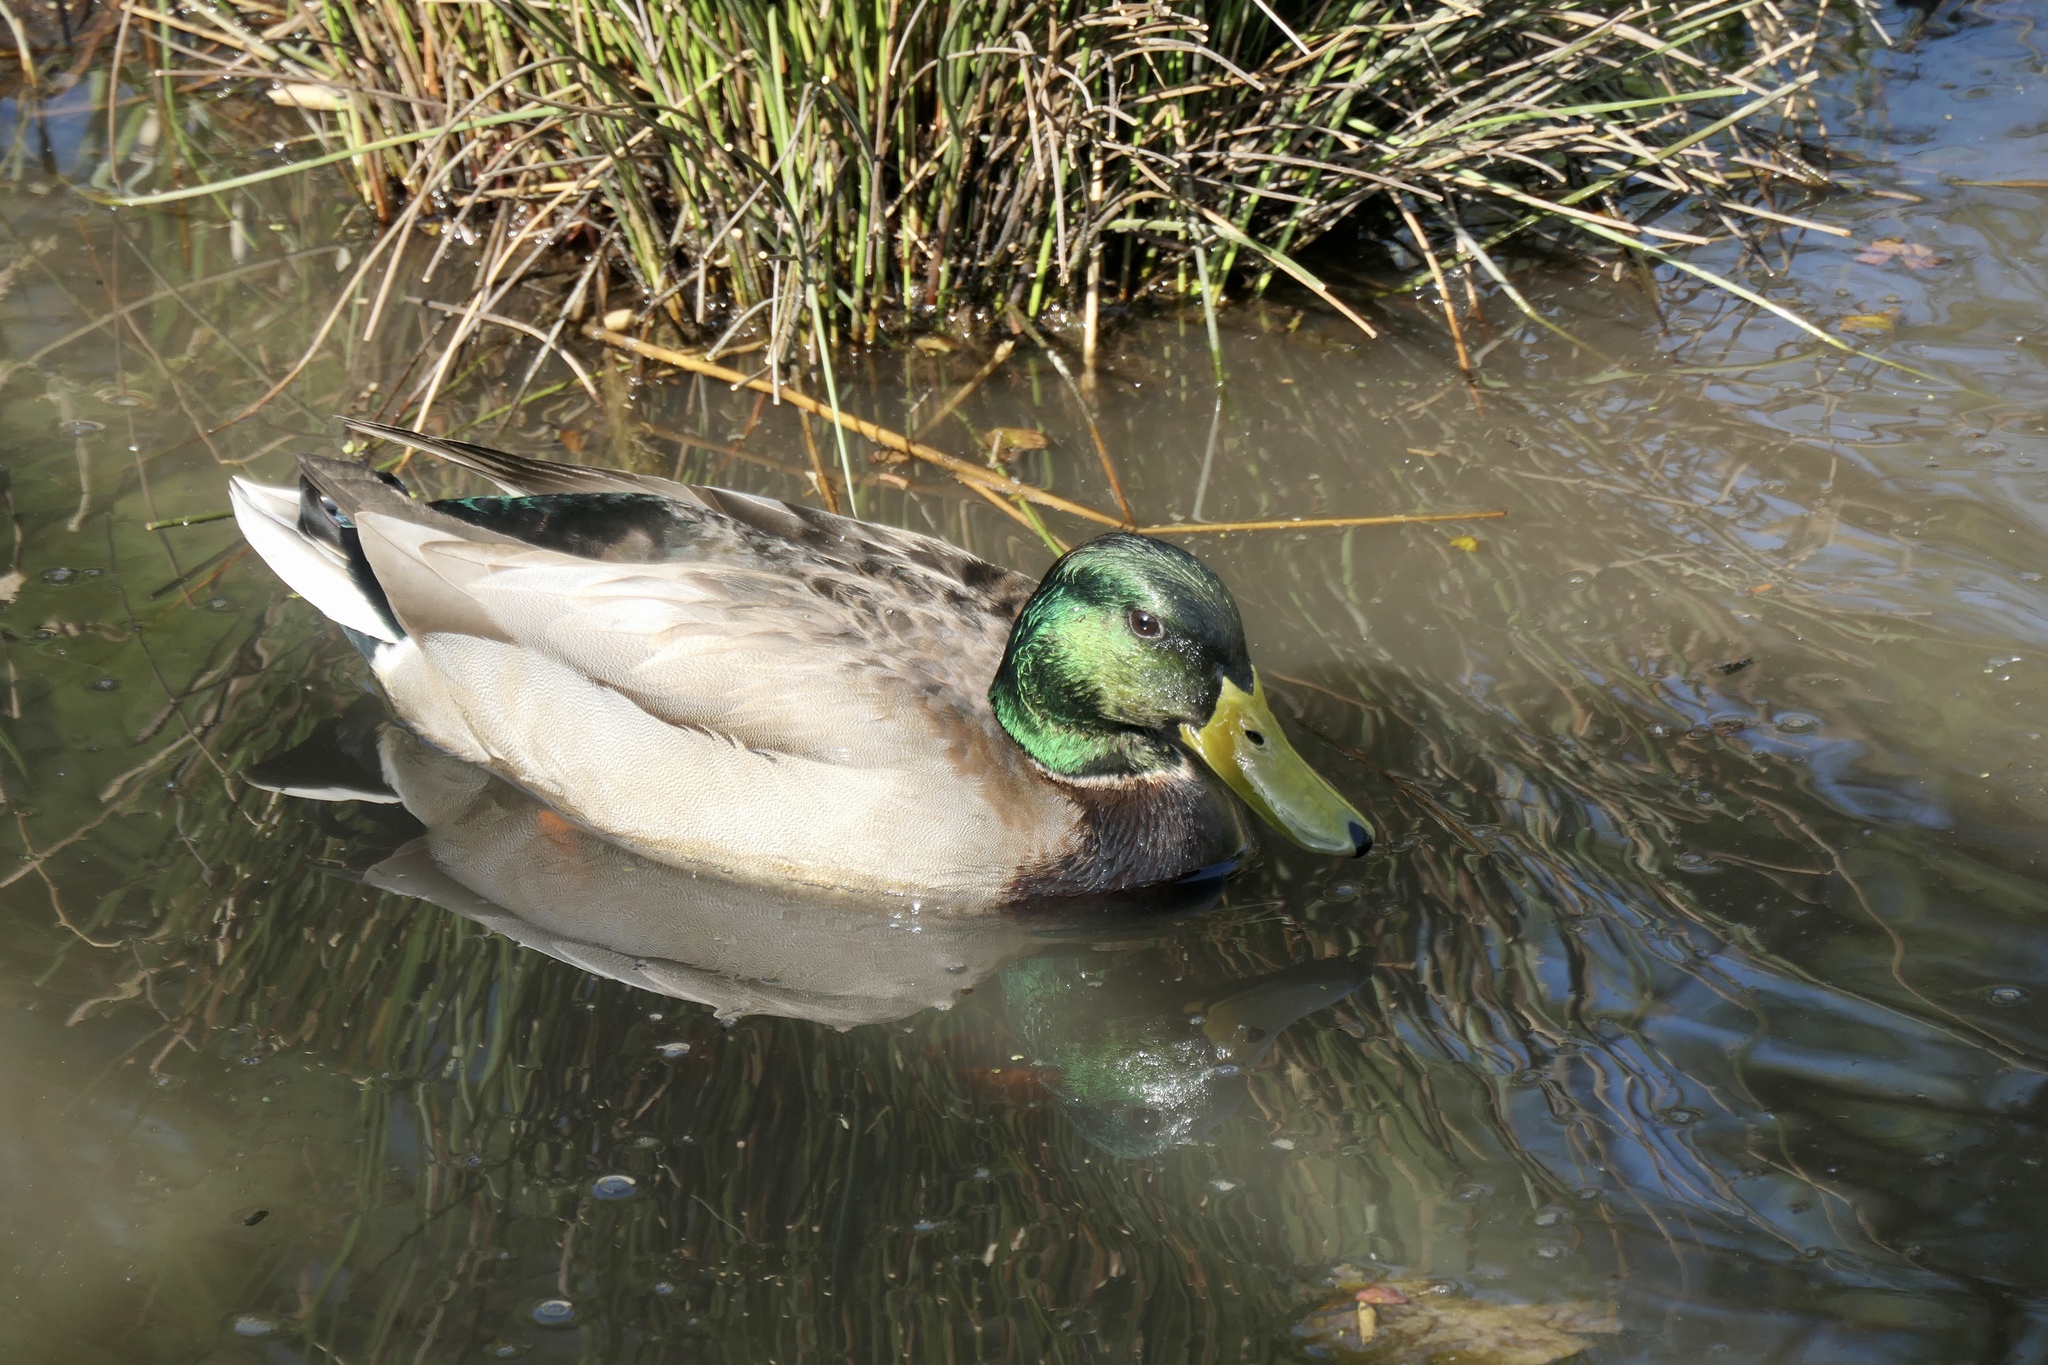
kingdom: Animalia
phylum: Chordata
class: Aves
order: Anseriformes
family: Anatidae
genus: Anas
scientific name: Anas platyrhynchos
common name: Mallard
